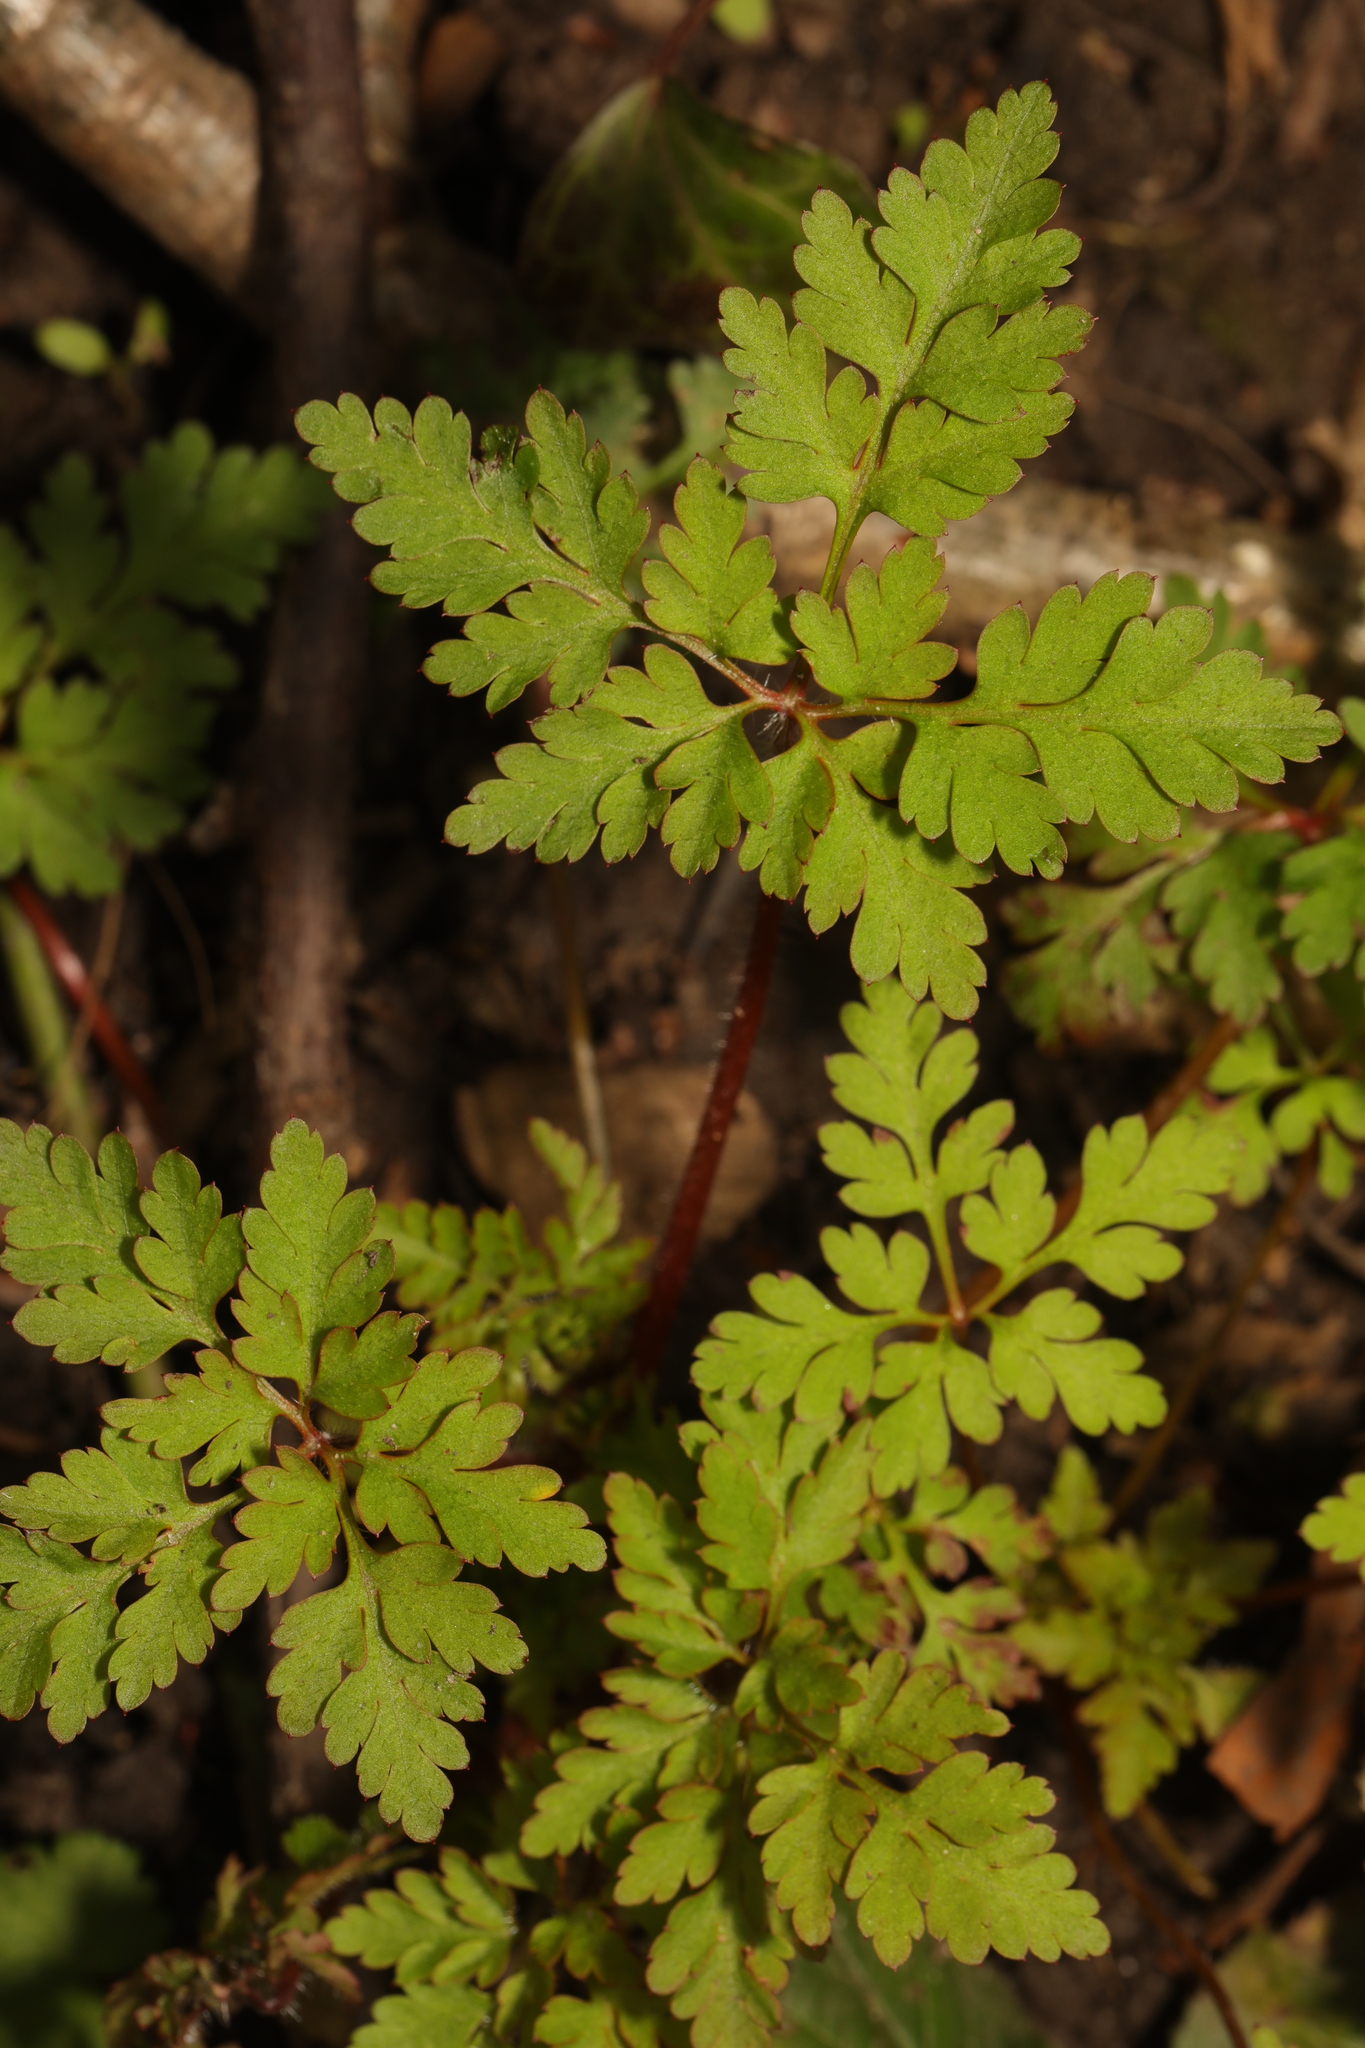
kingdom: Plantae
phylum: Tracheophyta
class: Magnoliopsida
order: Geraniales
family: Geraniaceae
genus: Geranium
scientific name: Geranium robertianum
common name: Herb-robert
